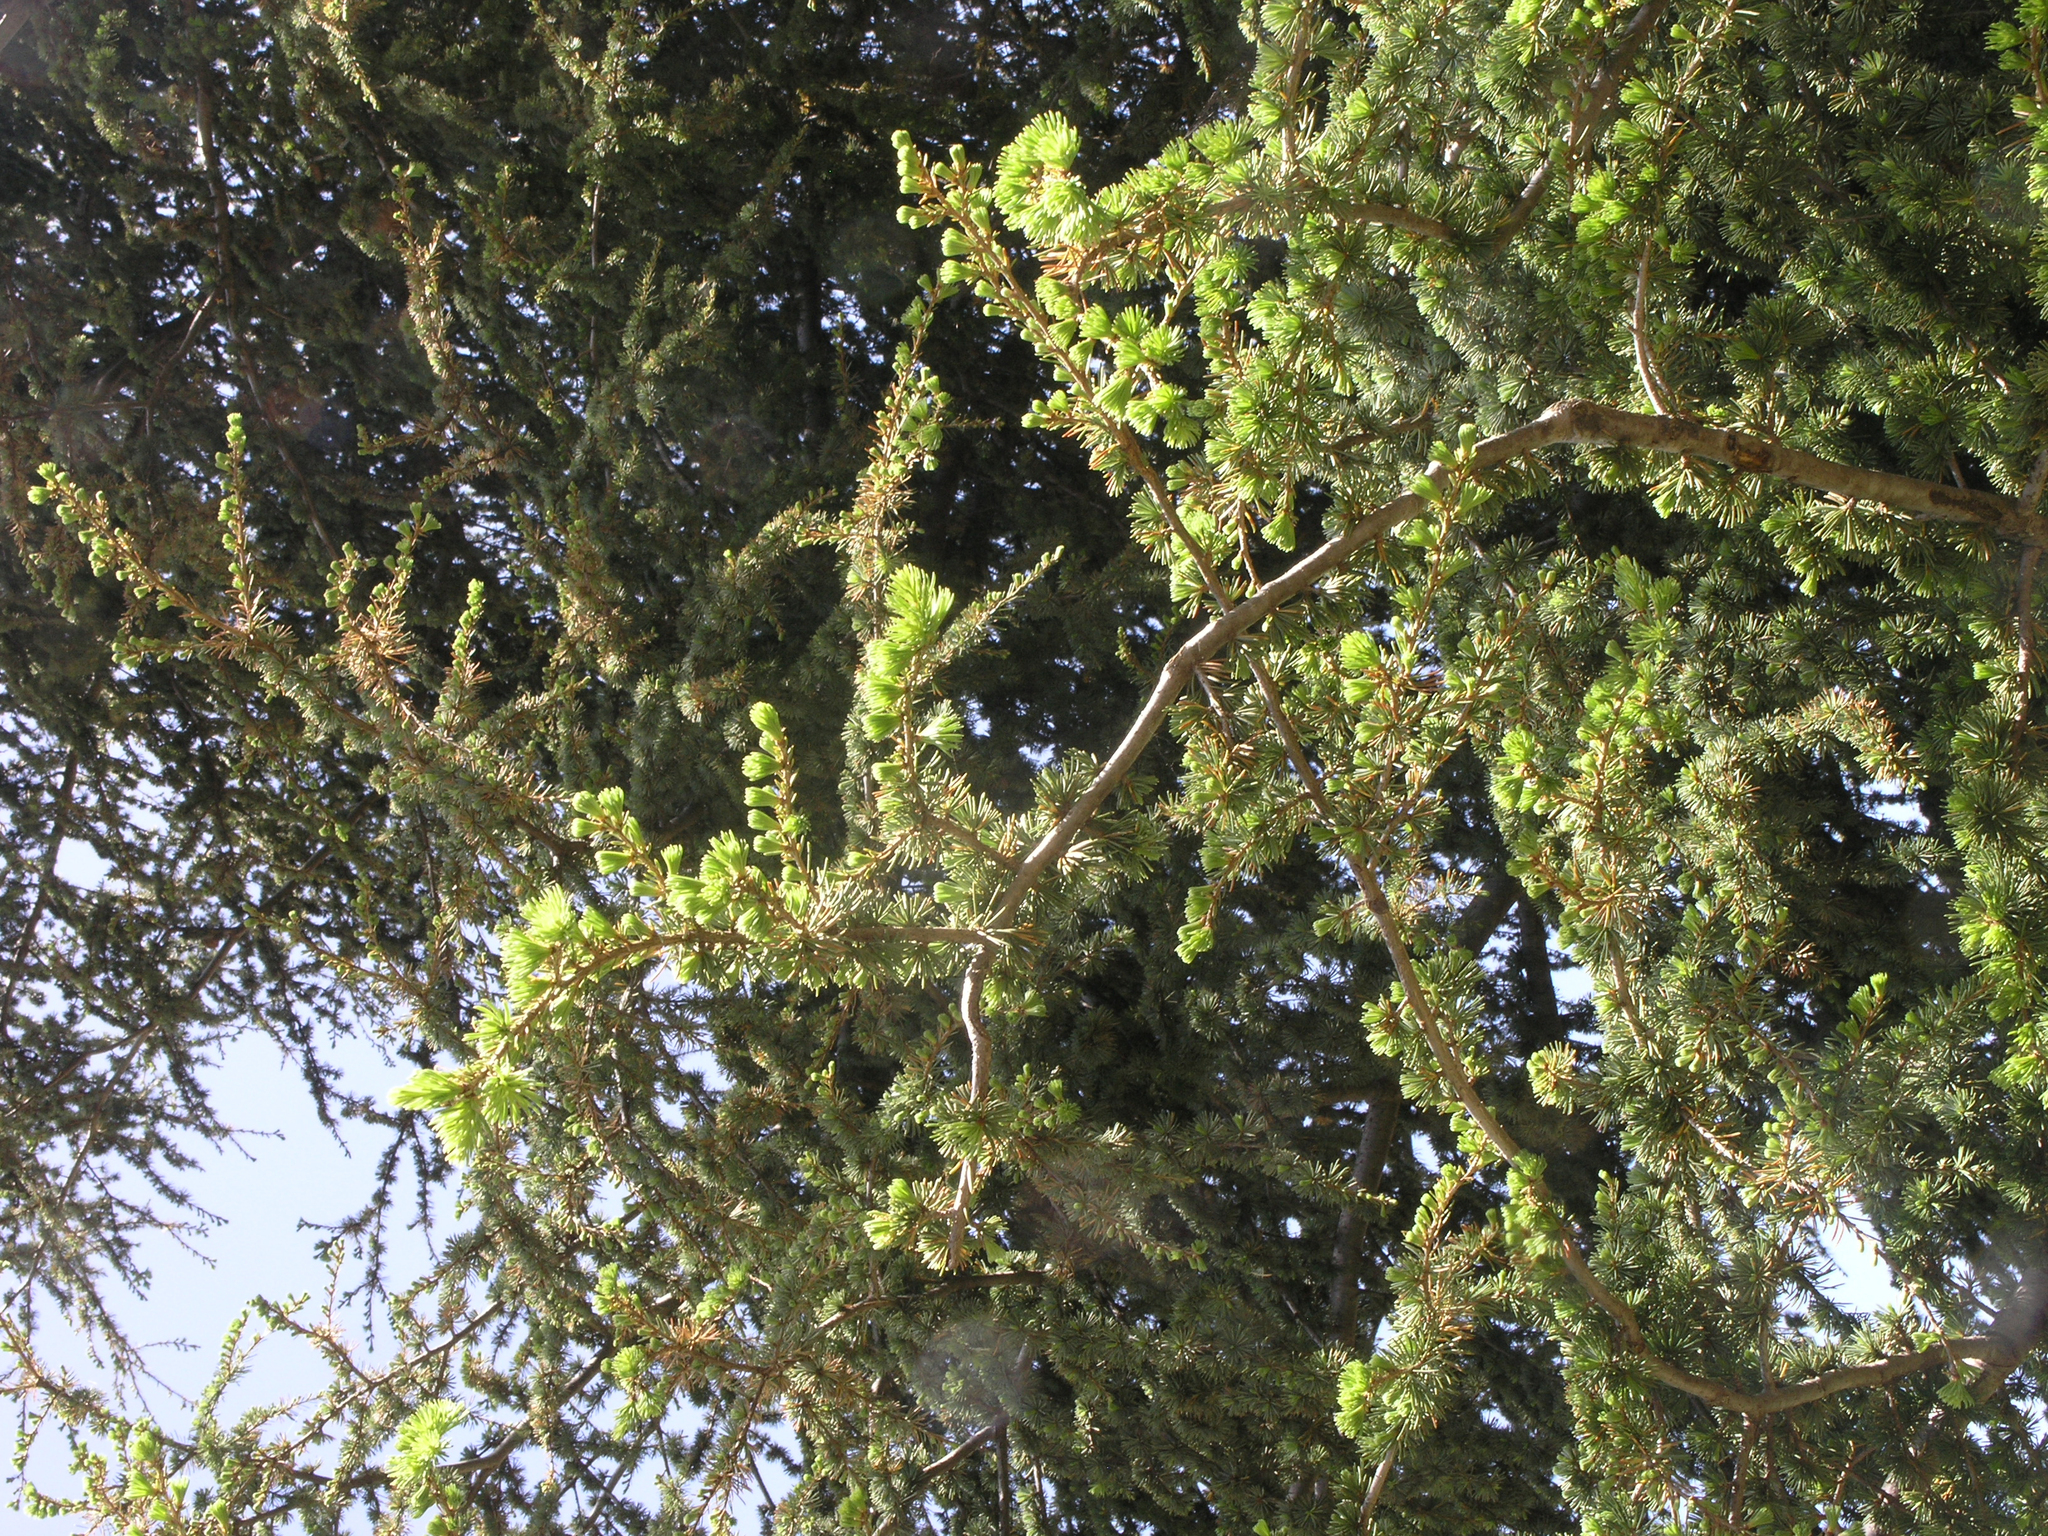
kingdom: Plantae
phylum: Tracheophyta
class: Pinopsida
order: Pinales
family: Pinaceae
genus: Cedrus
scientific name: Cedrus atlantica
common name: Atlas cedar
